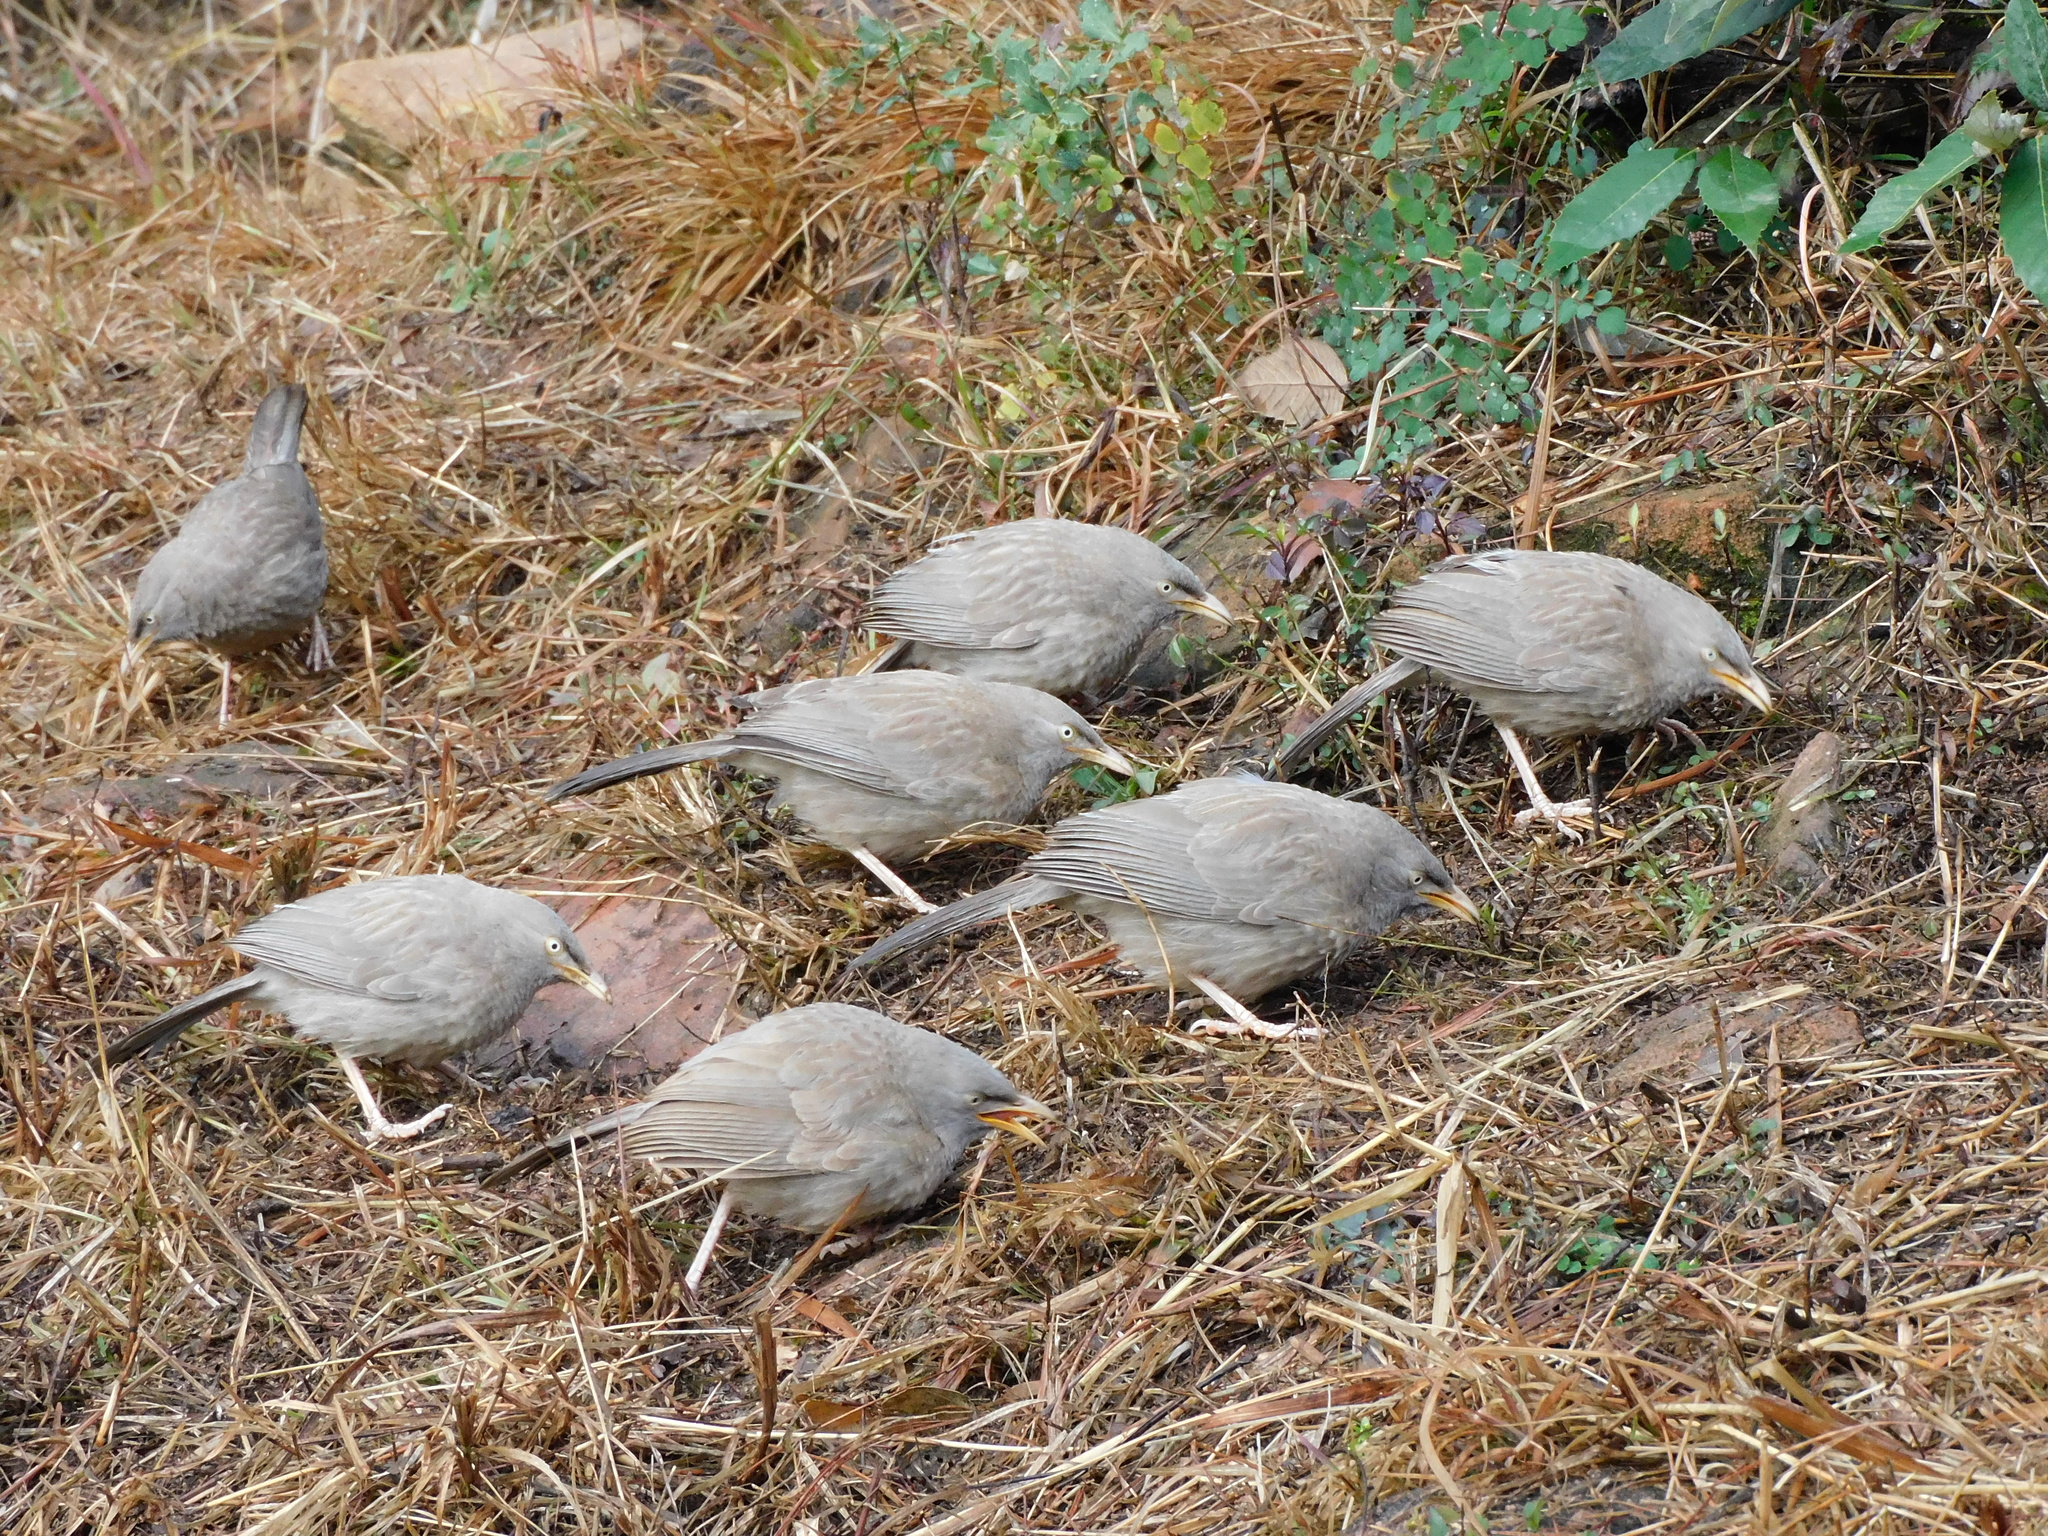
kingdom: Animalia
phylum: Chordata
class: Aves
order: Passeriformes
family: Leiothrichidae
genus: Turdoides
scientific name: Turdoides striata
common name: Jungle babbler
